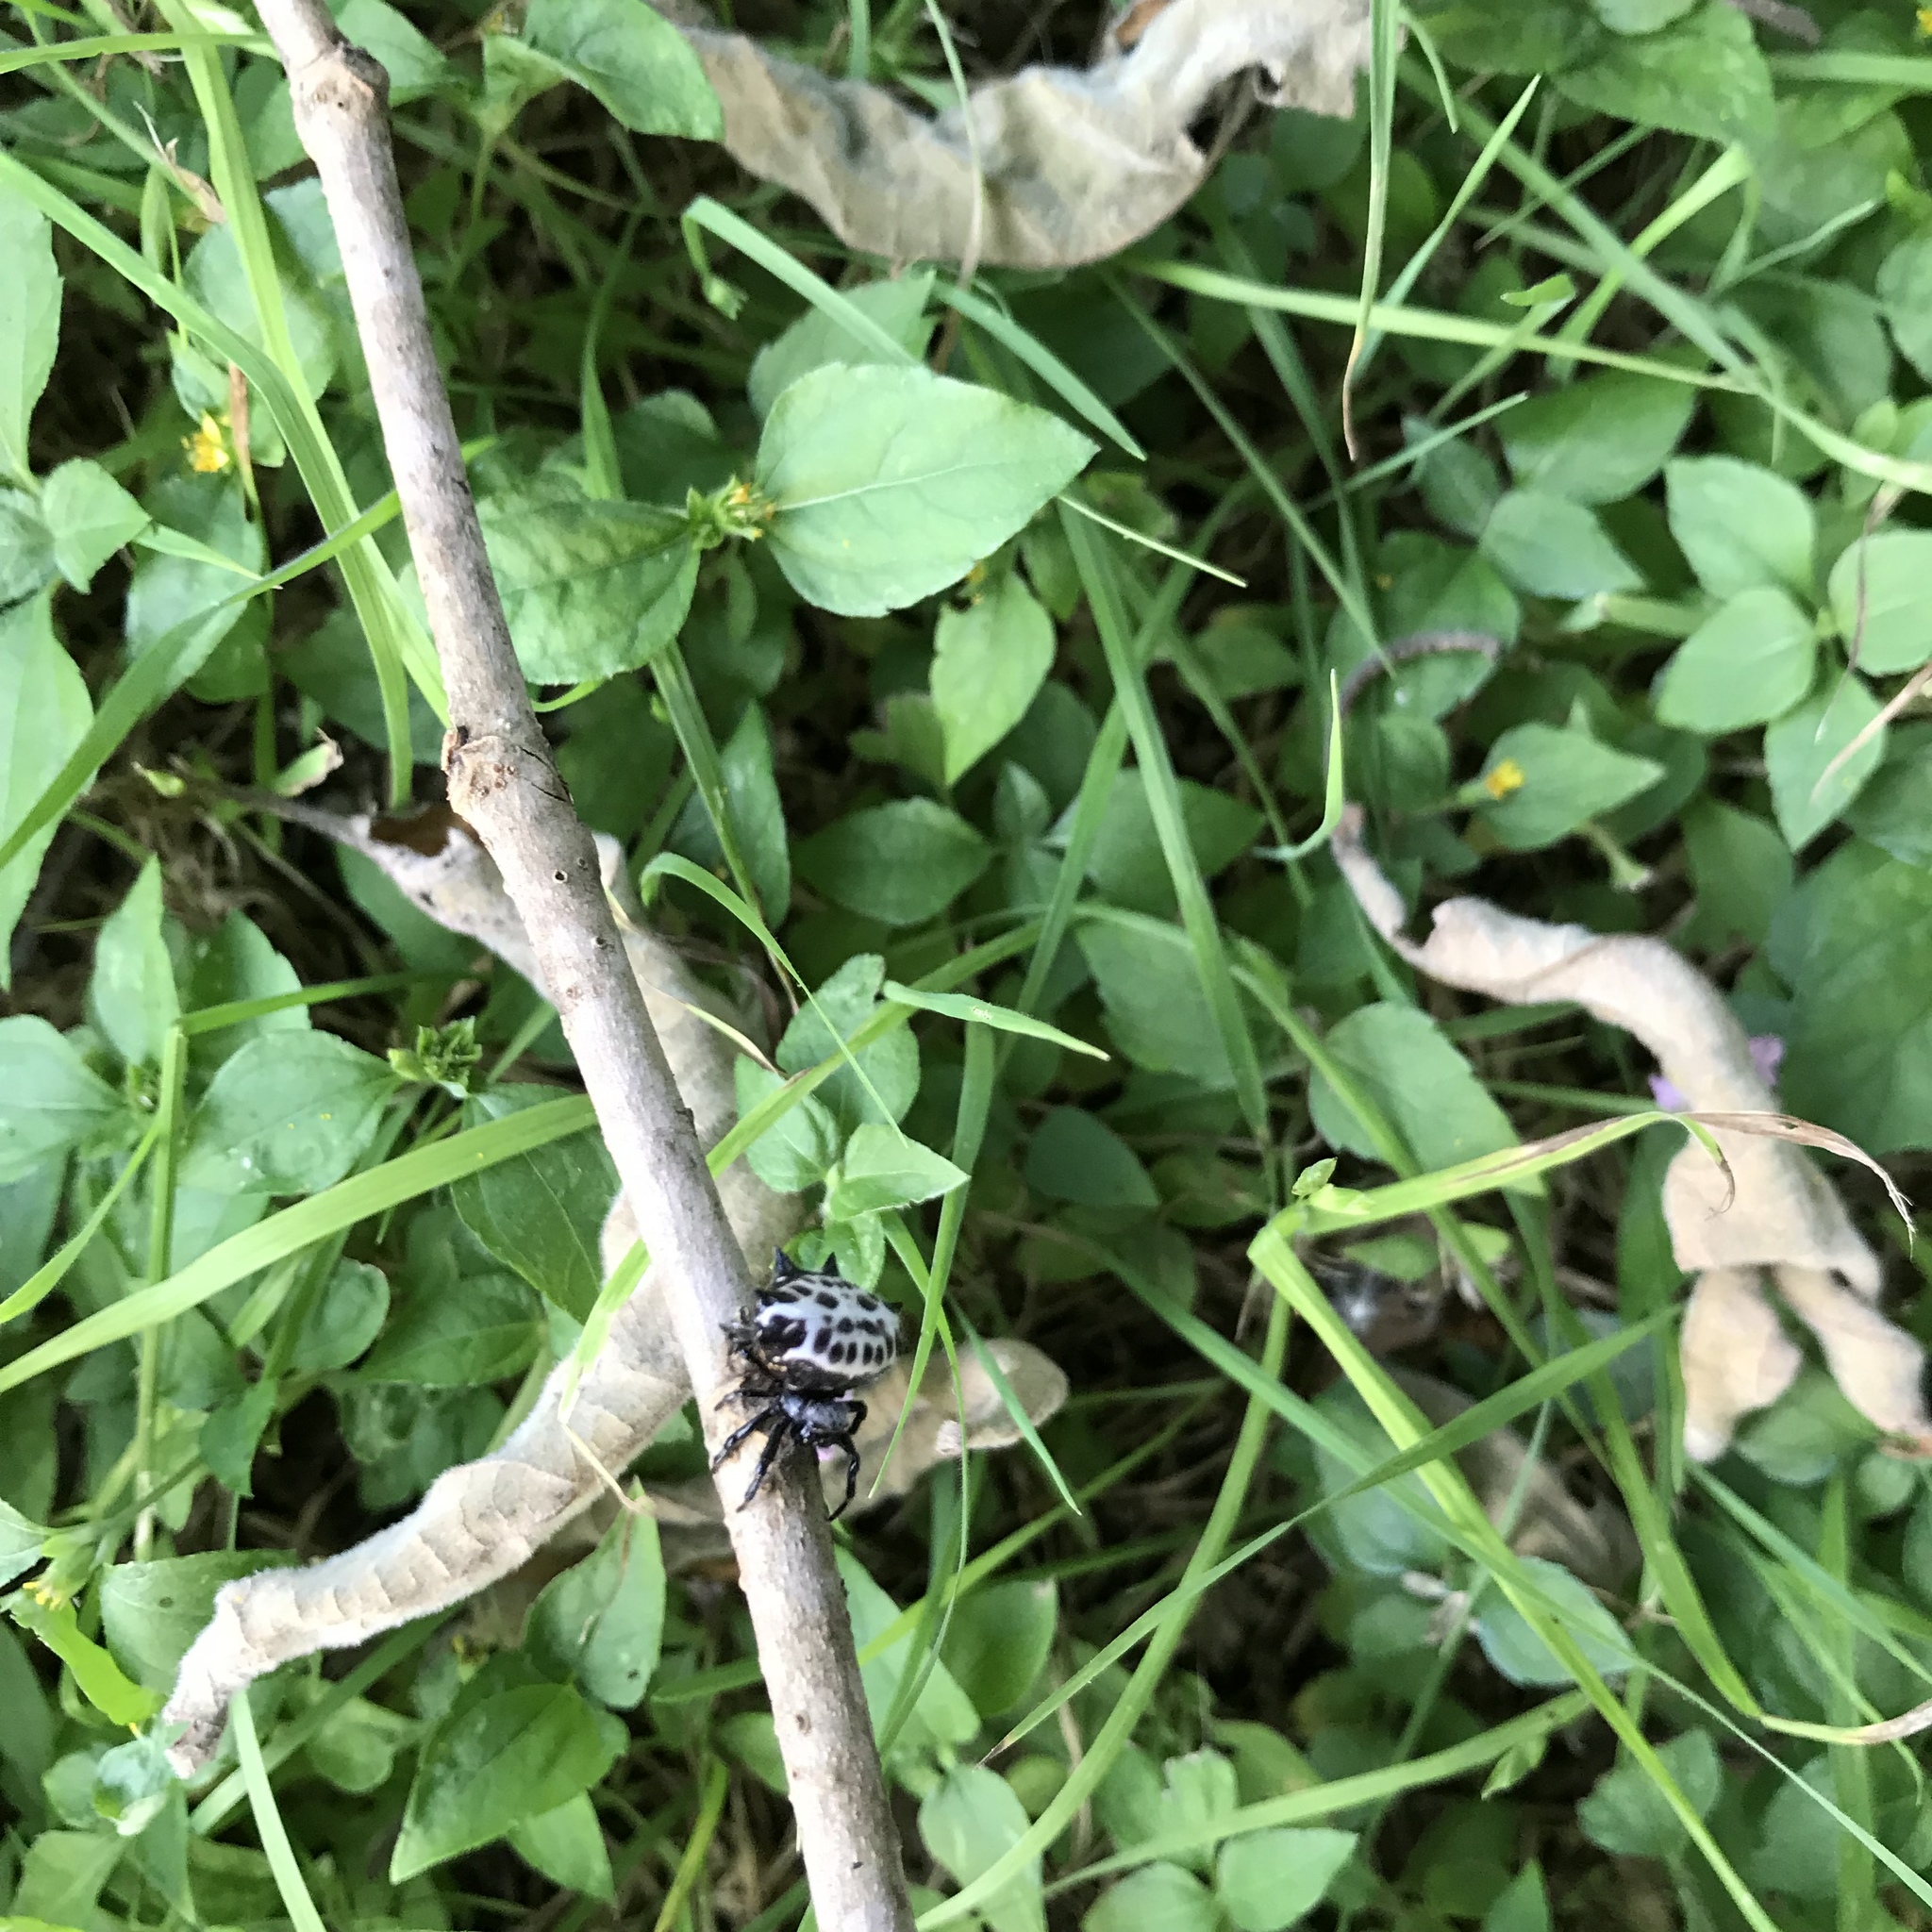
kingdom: Animalia
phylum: Arthropoda
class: Arachnida
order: Araneae
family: Araneidae
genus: Gasteracantha
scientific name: Gasteracantha cancriformis
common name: Orb weavers
